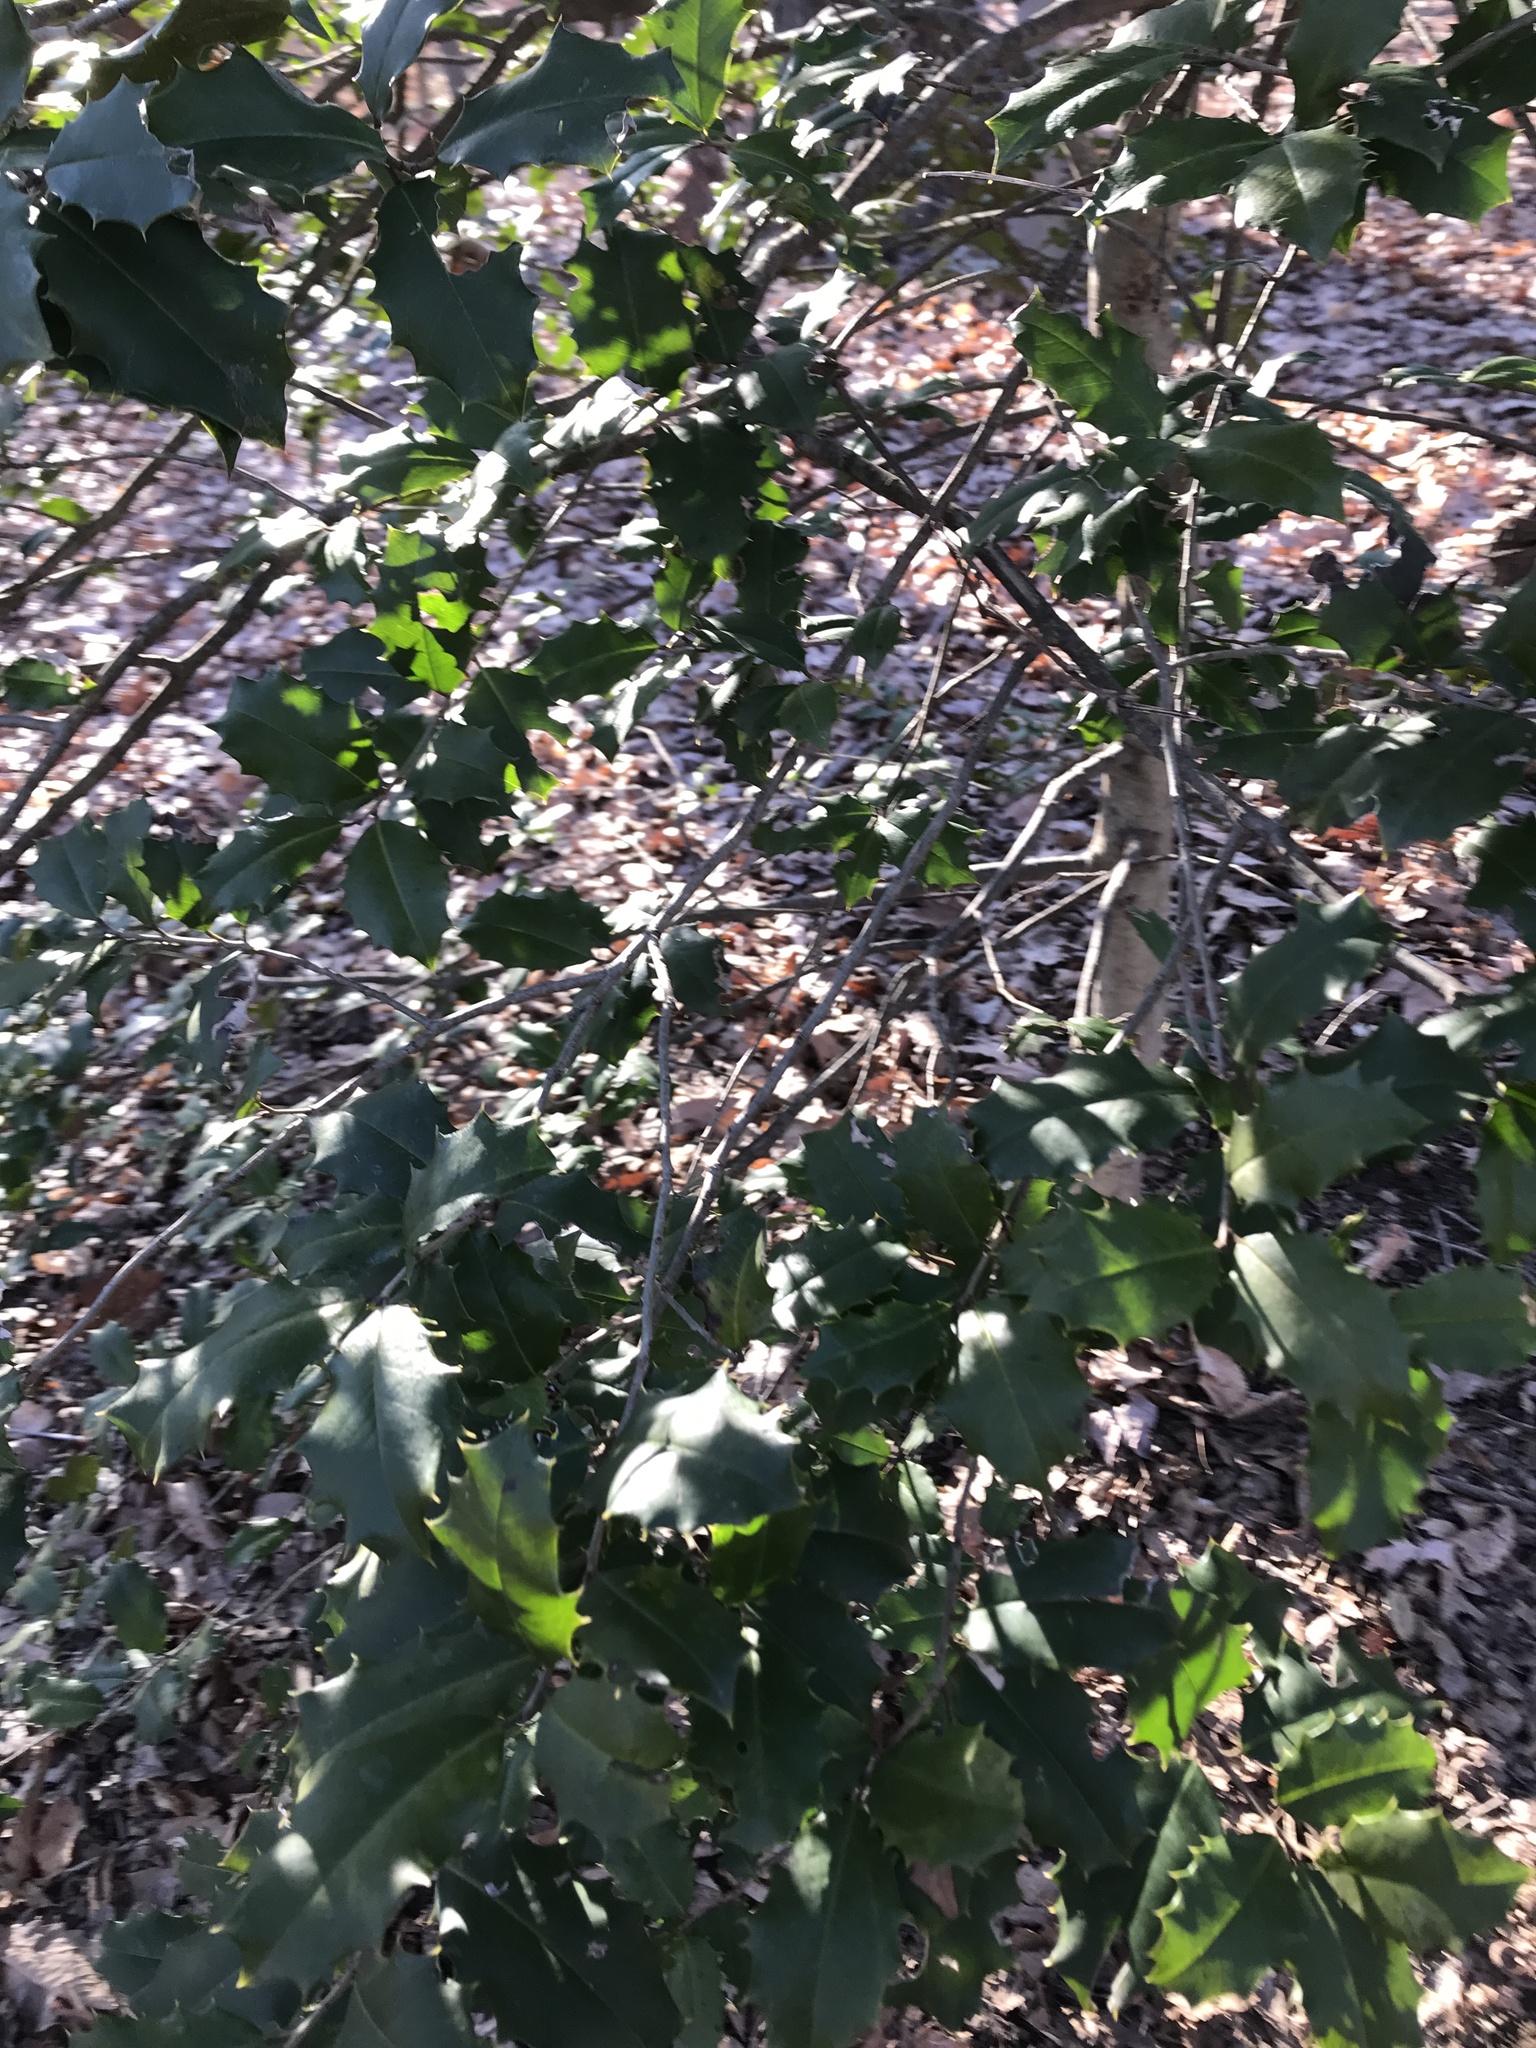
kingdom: Plantae
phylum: Tracheophyta
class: Magnoliopsida
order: Aquifoliales
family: Aquifoliaceae
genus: Ilex
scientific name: Ilex opaca
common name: American holly
